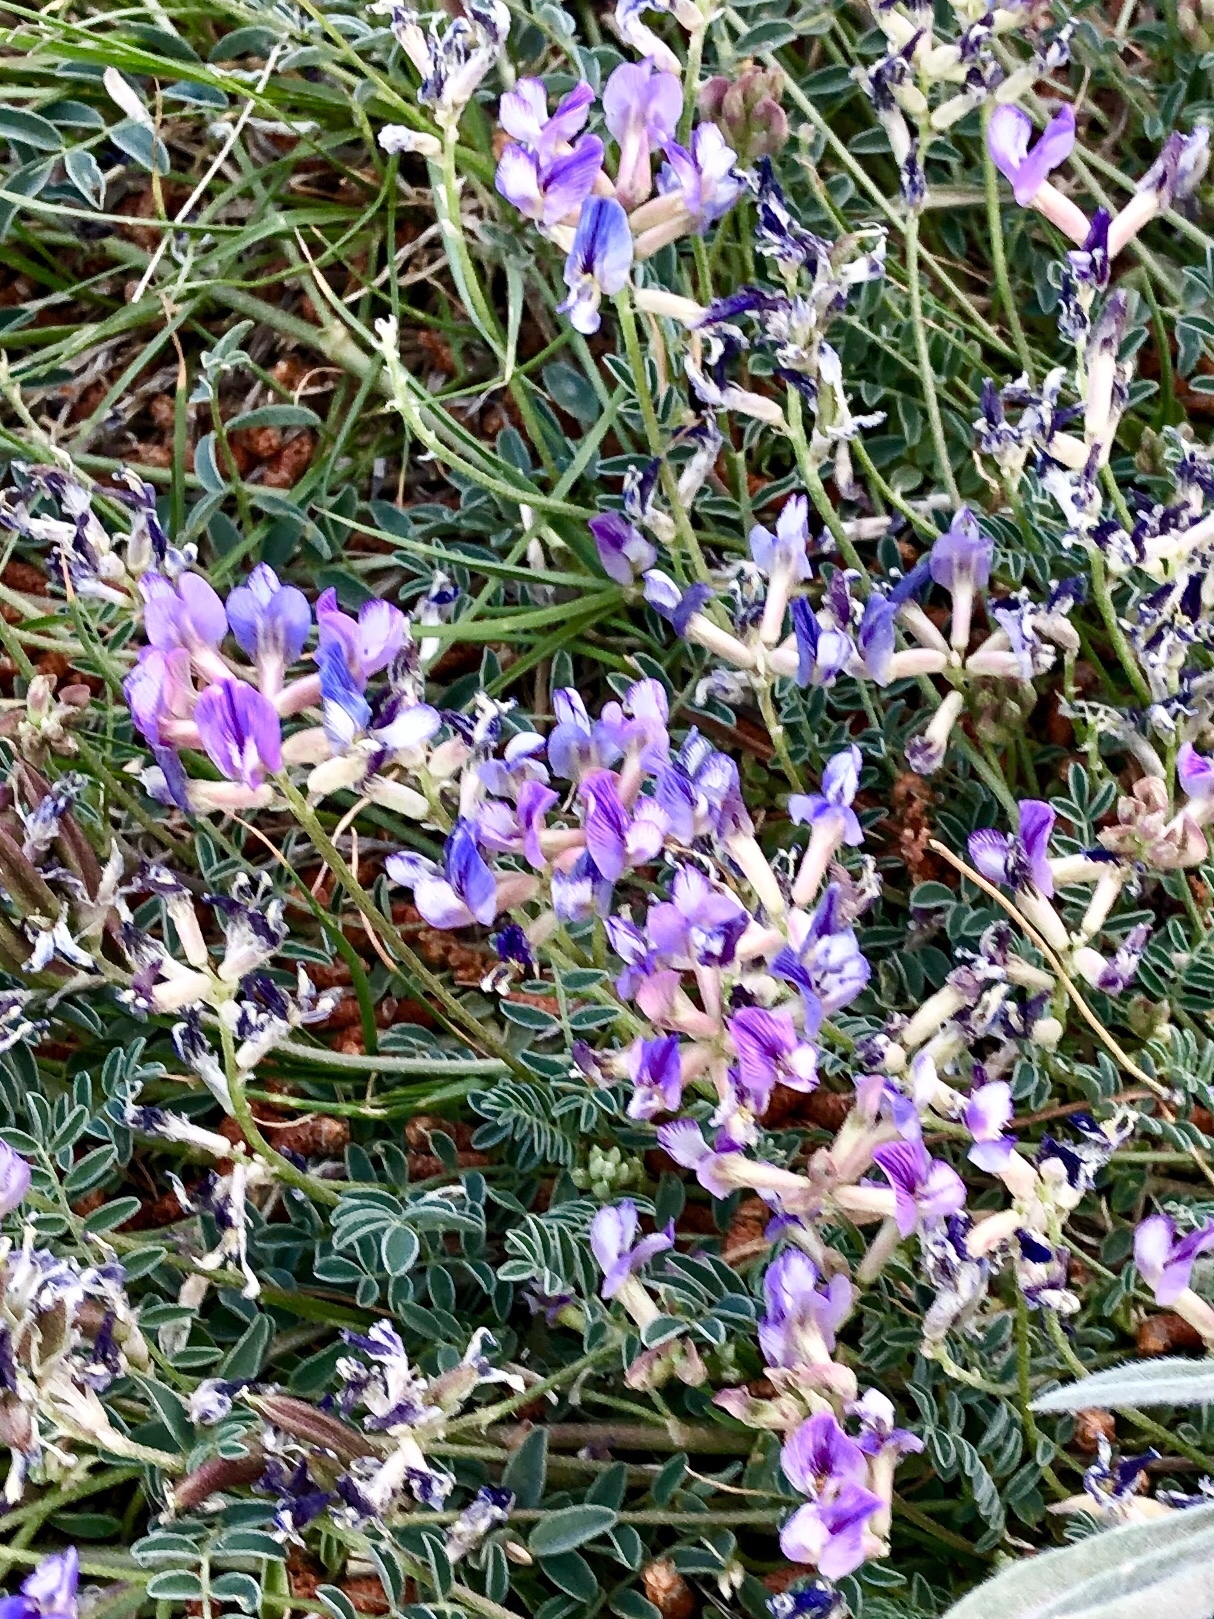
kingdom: Plantae
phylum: Tracheophyta
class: Magnoliopsida
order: Fabales
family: Fabaceae
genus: Astragalus
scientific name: Astragalus nothoxys
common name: Beaked milk-vetch
